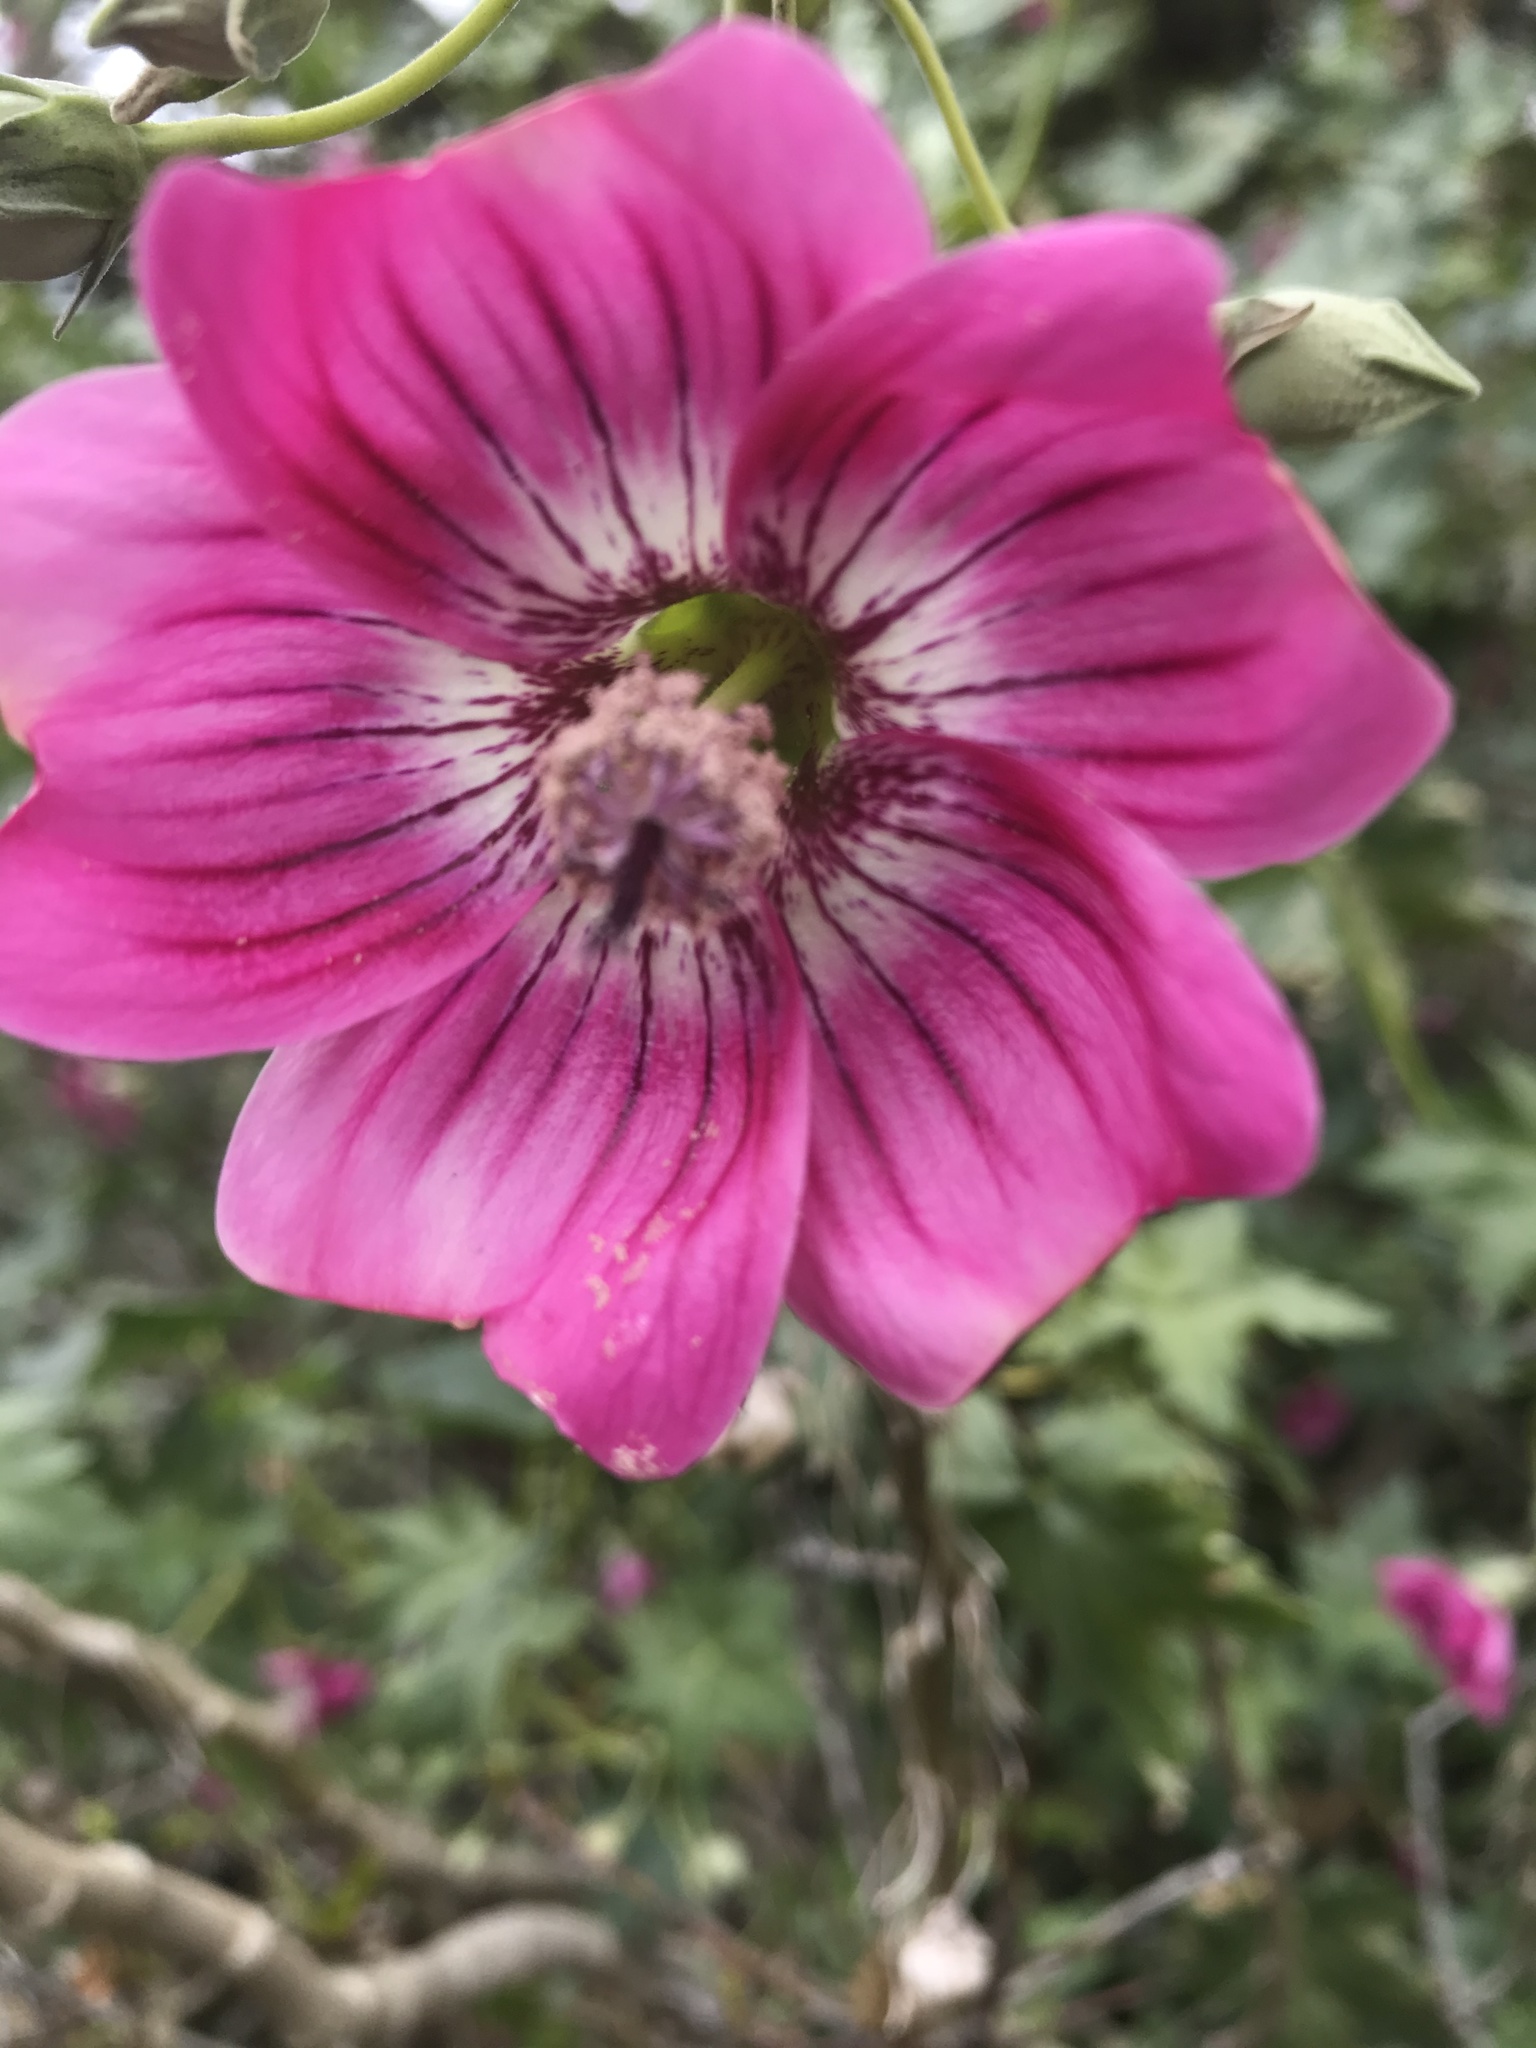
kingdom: Plantae
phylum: Tracheophyta
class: Magnoliopsida
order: Malvales
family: Malvaceae
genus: Malva
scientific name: Malva assurgentiflora
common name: Island mallow
